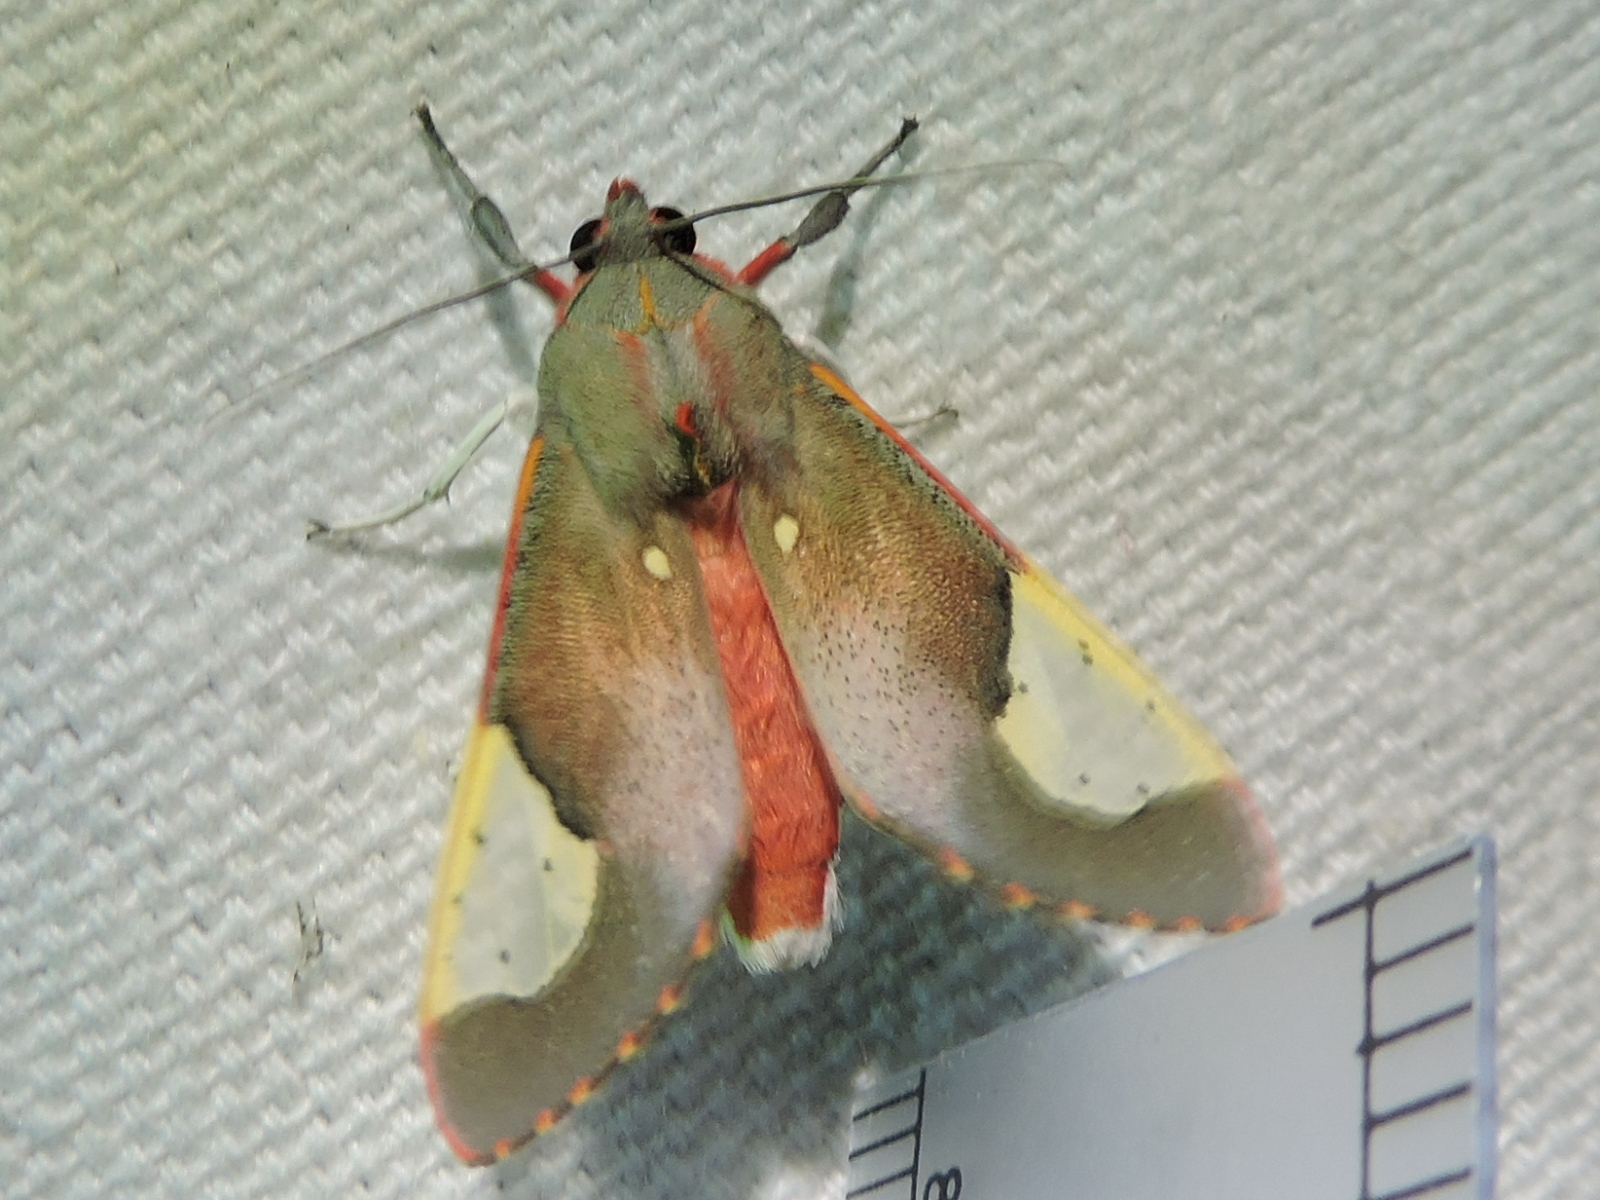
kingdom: Animalia
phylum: Arthropoda
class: Insecta
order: Lepidoptera
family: Erebidae
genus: Bertholdia
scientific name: Bertholdia trigona
